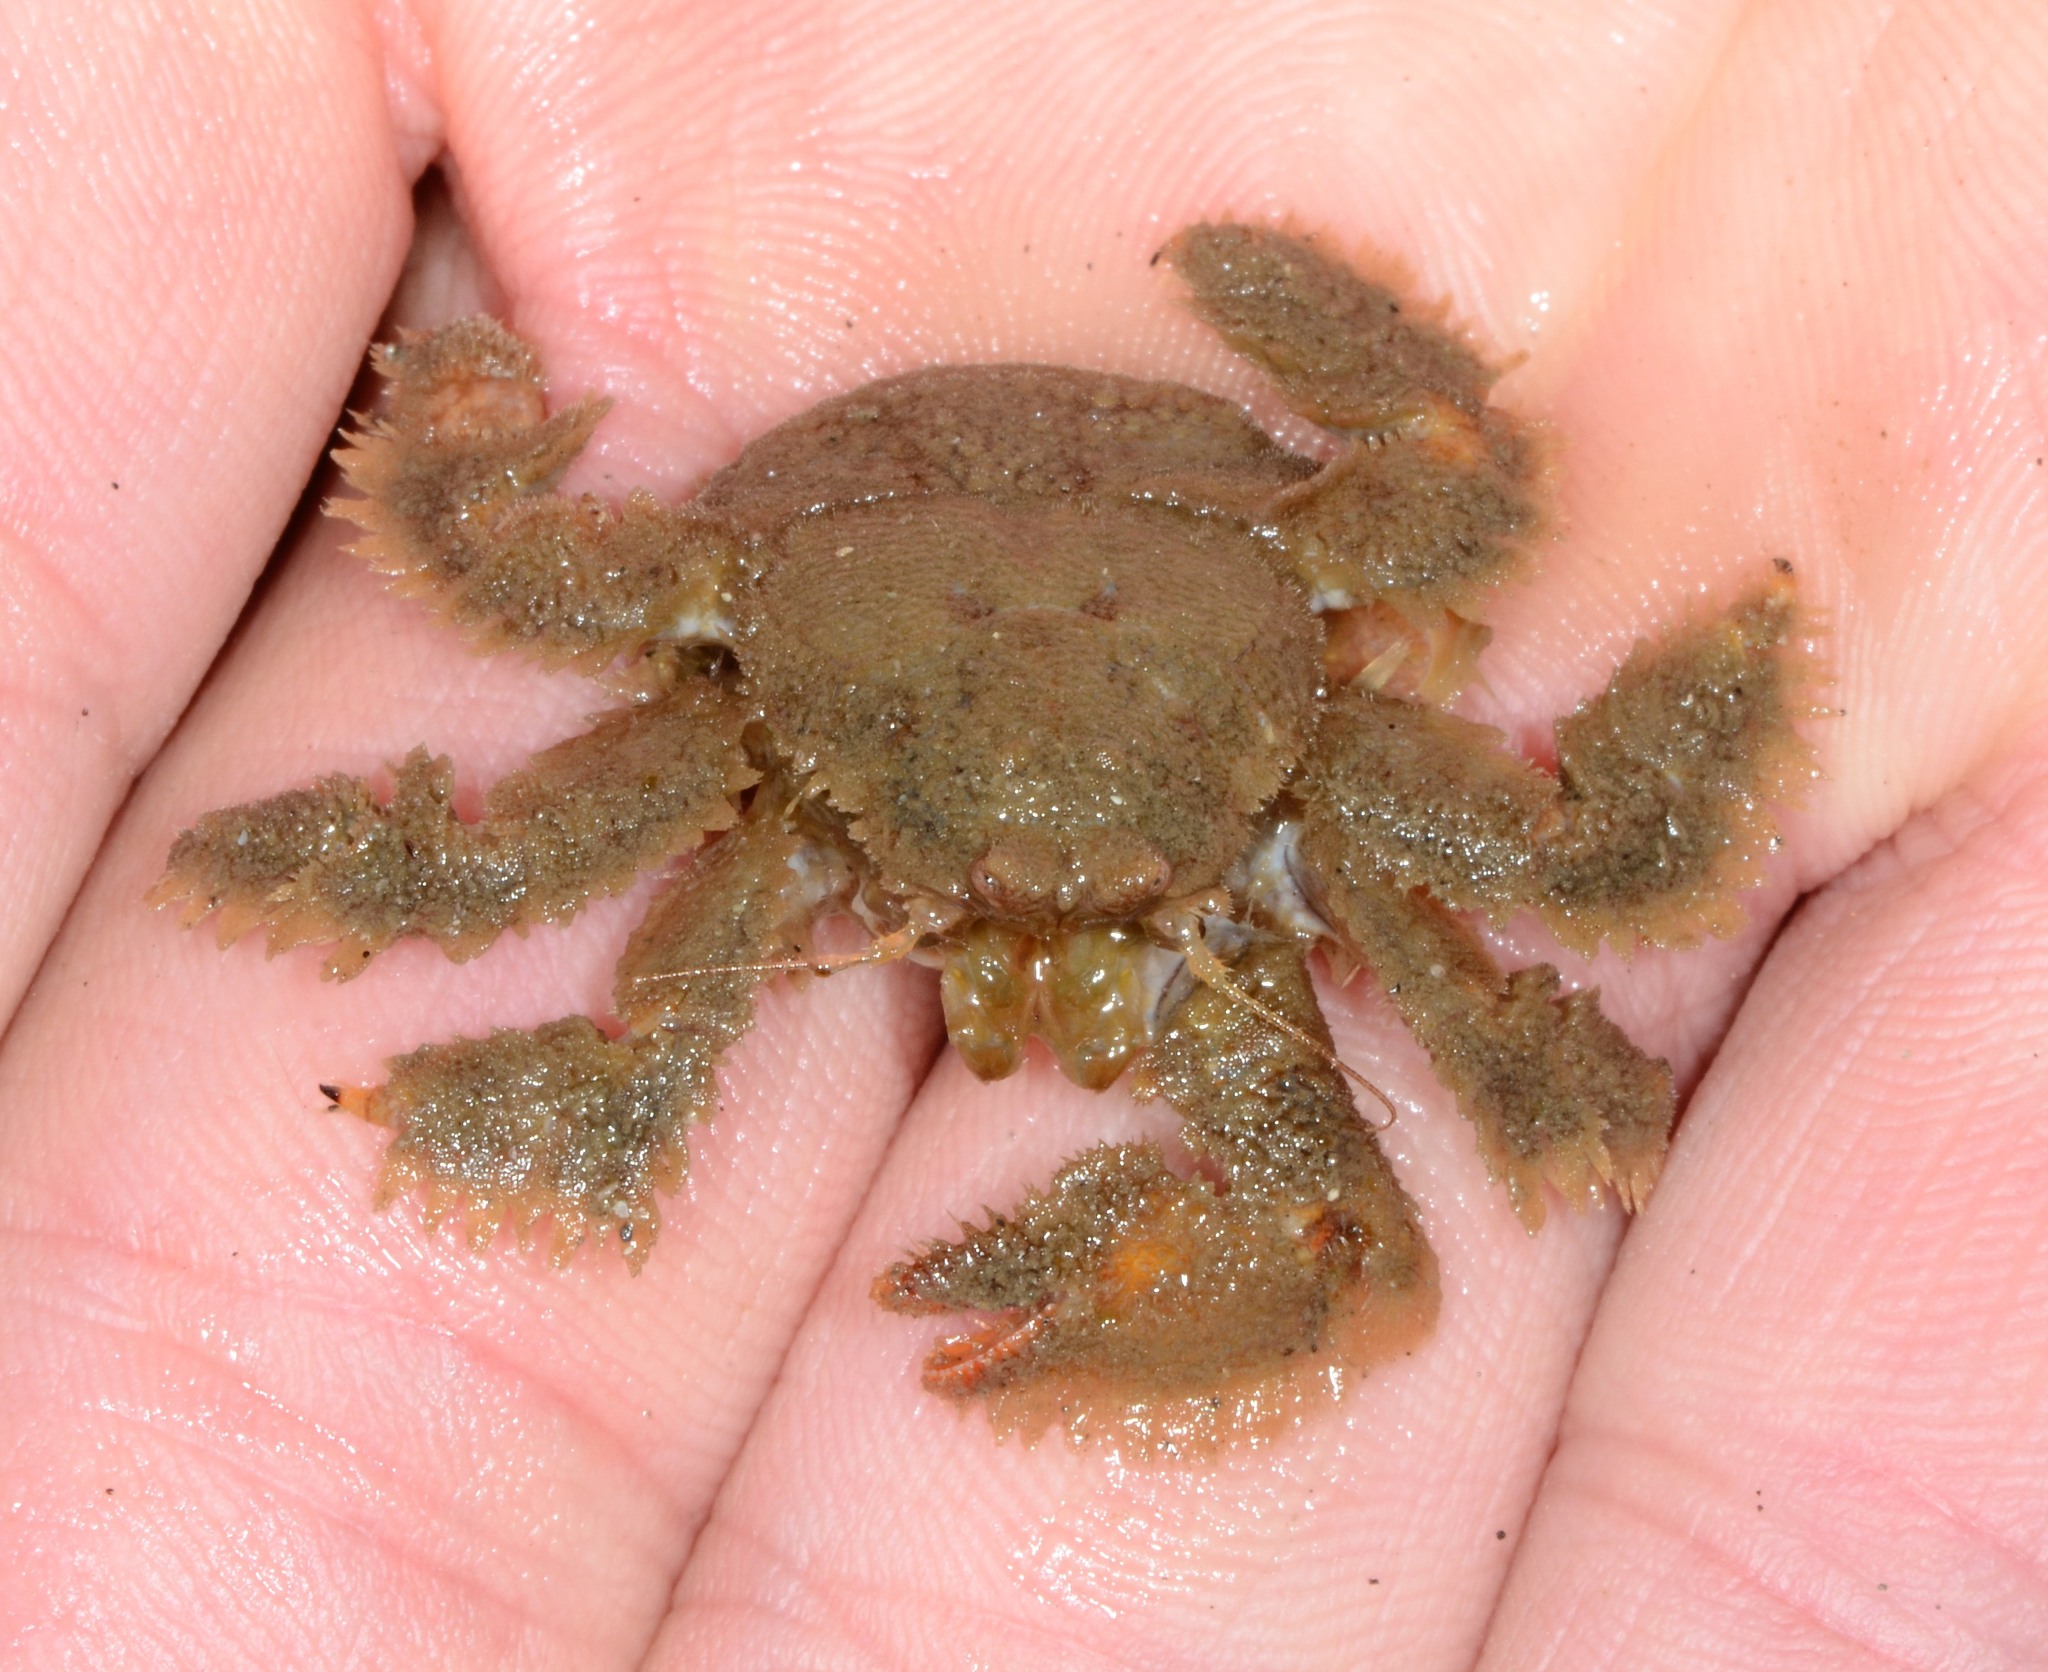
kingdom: Animalia
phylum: Arthropoda
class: Malacostraca
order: Decapoda
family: Hapalogastridae
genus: Hapalogaster
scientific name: Hapalogaster cavicauda
